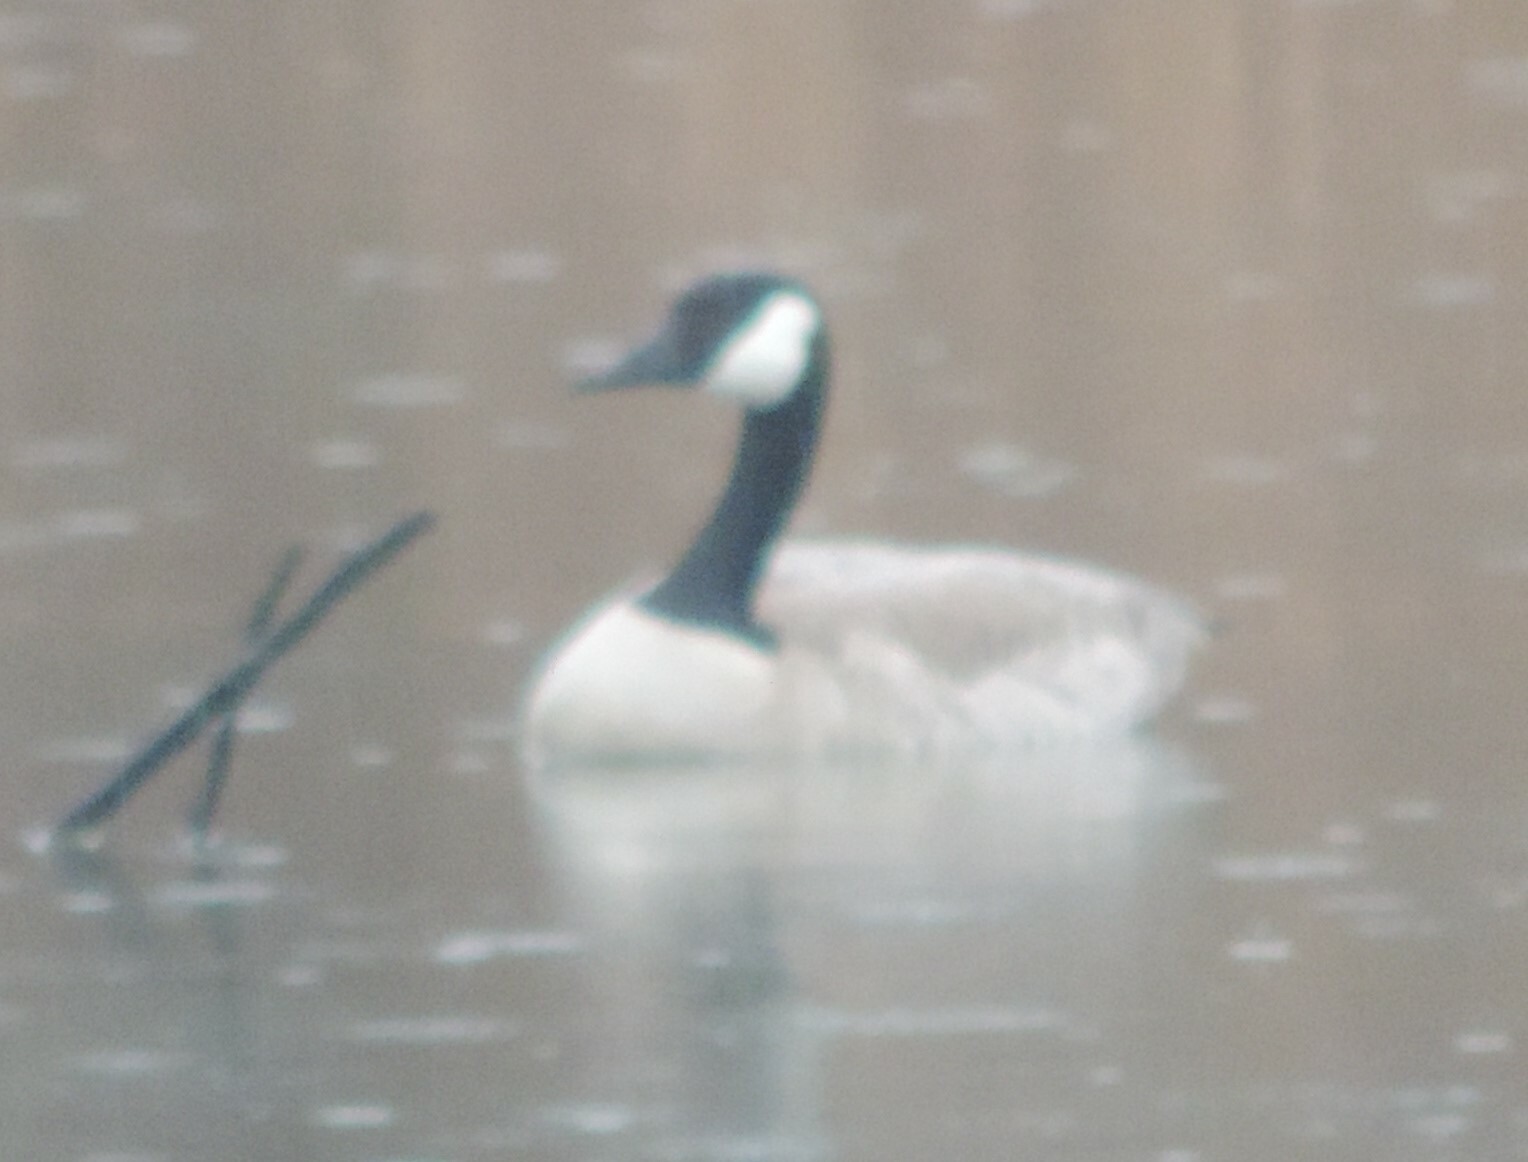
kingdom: Animalia
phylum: Chordata
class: Aves
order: Anseriformes
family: Anatidae
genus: Branta
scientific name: Branta canadensis
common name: Canada goose
